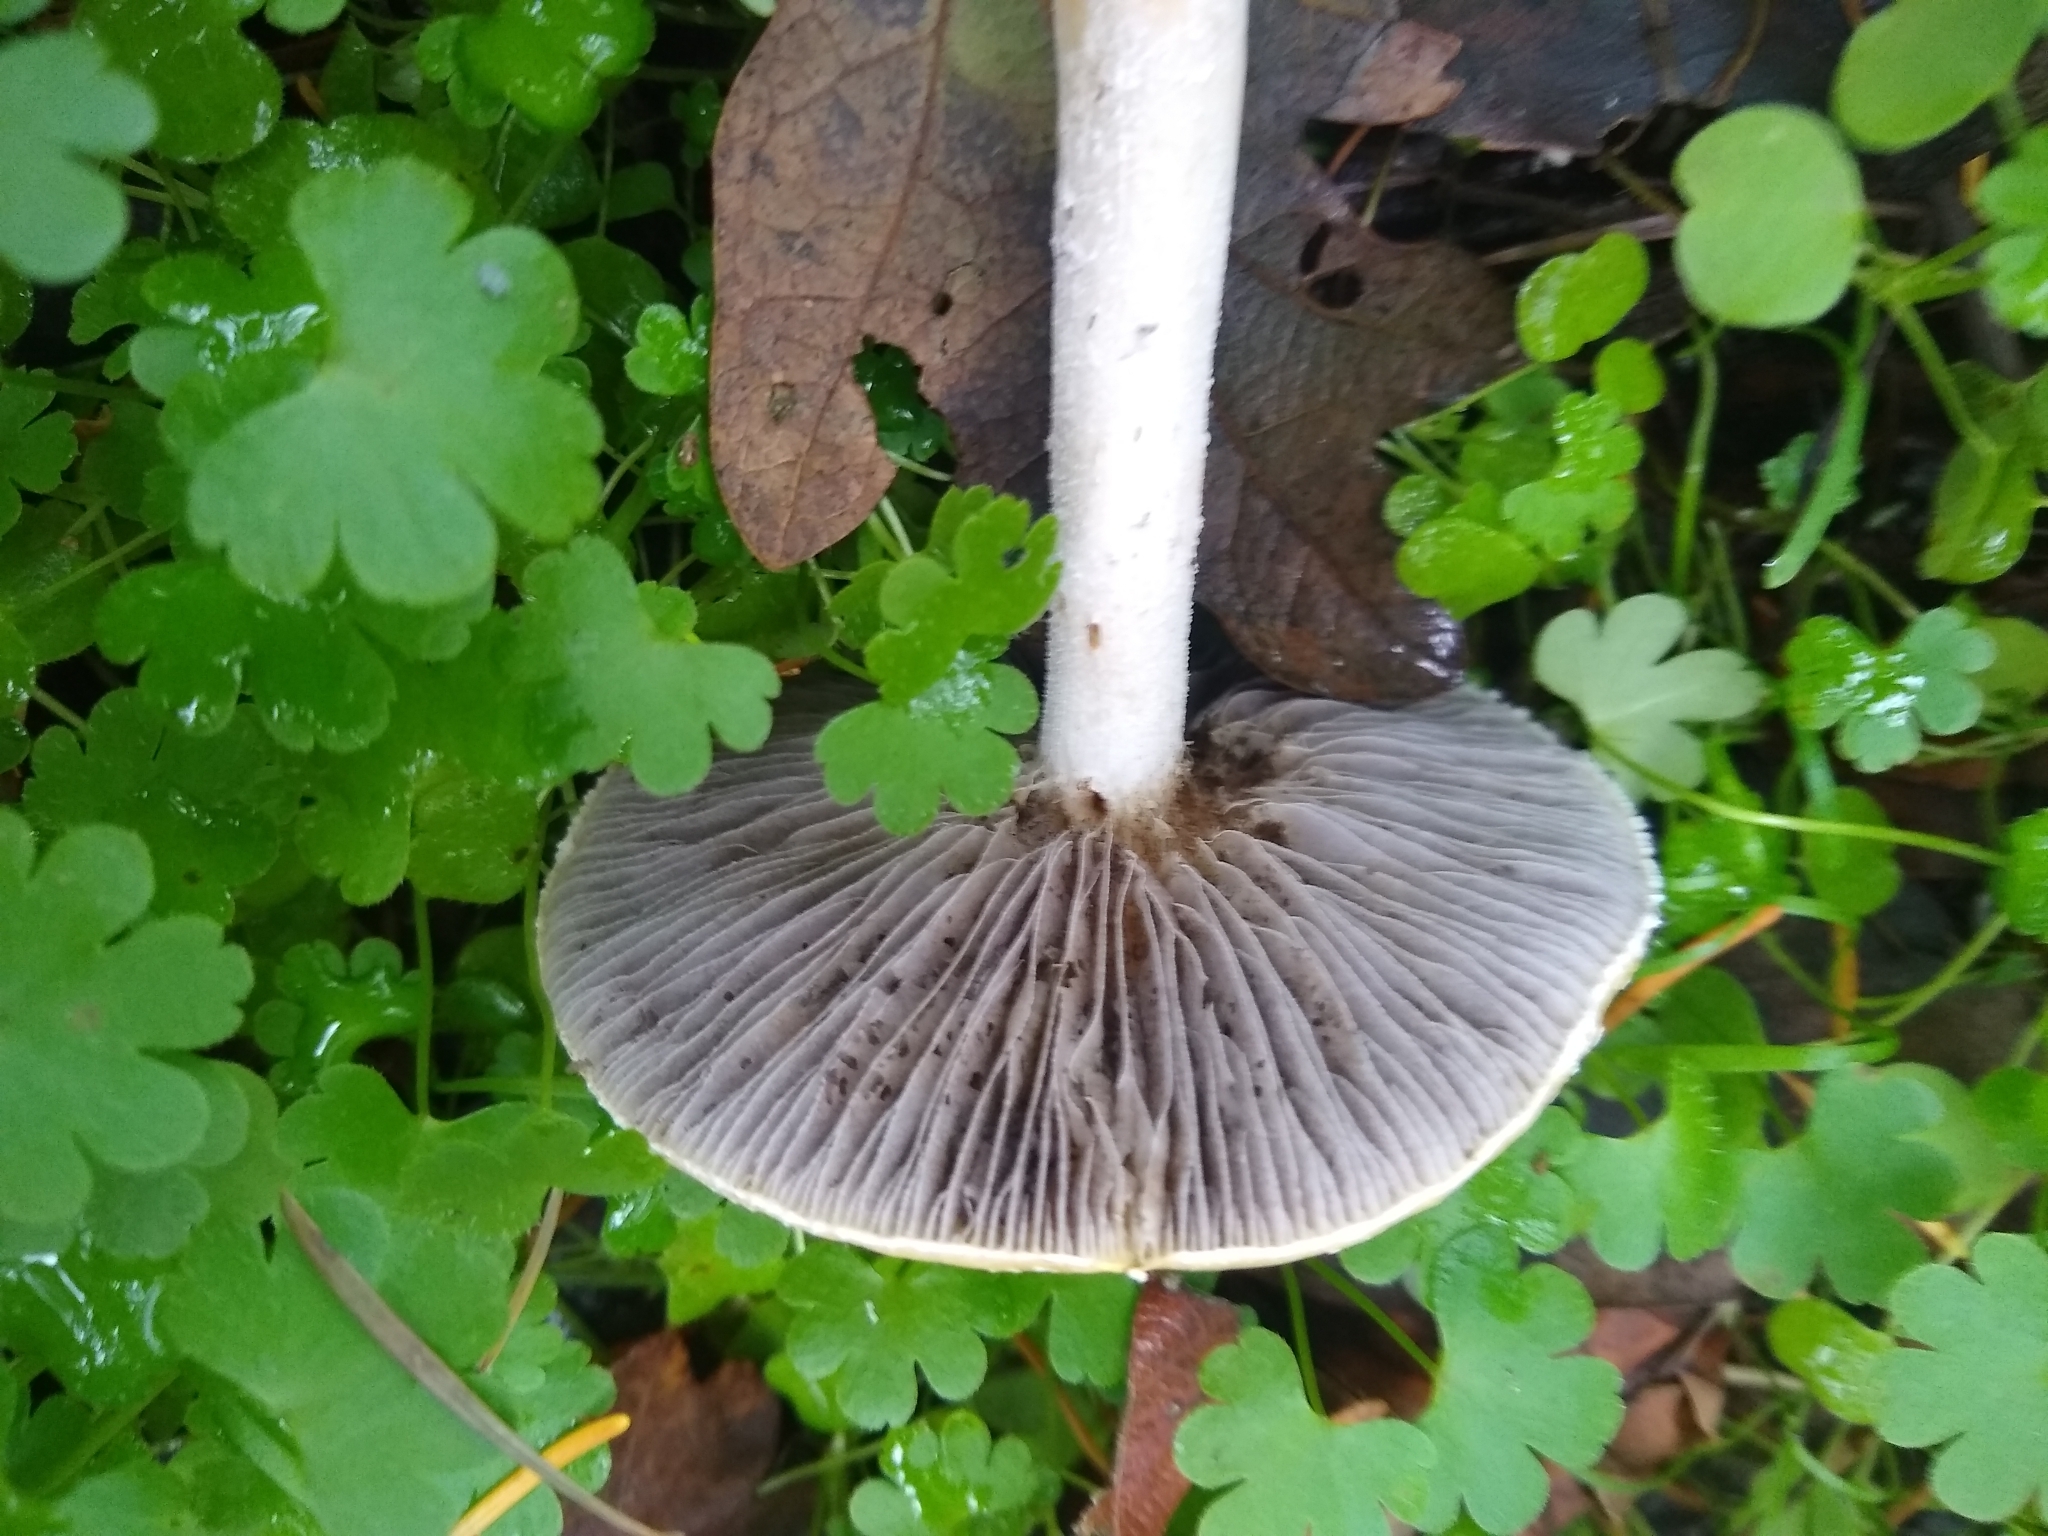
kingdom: Fungi
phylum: Basidiomycota
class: Agaricomycetes
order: Agaricales
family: Strophariaceae
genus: Stropharia
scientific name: Stropharia ambigua
